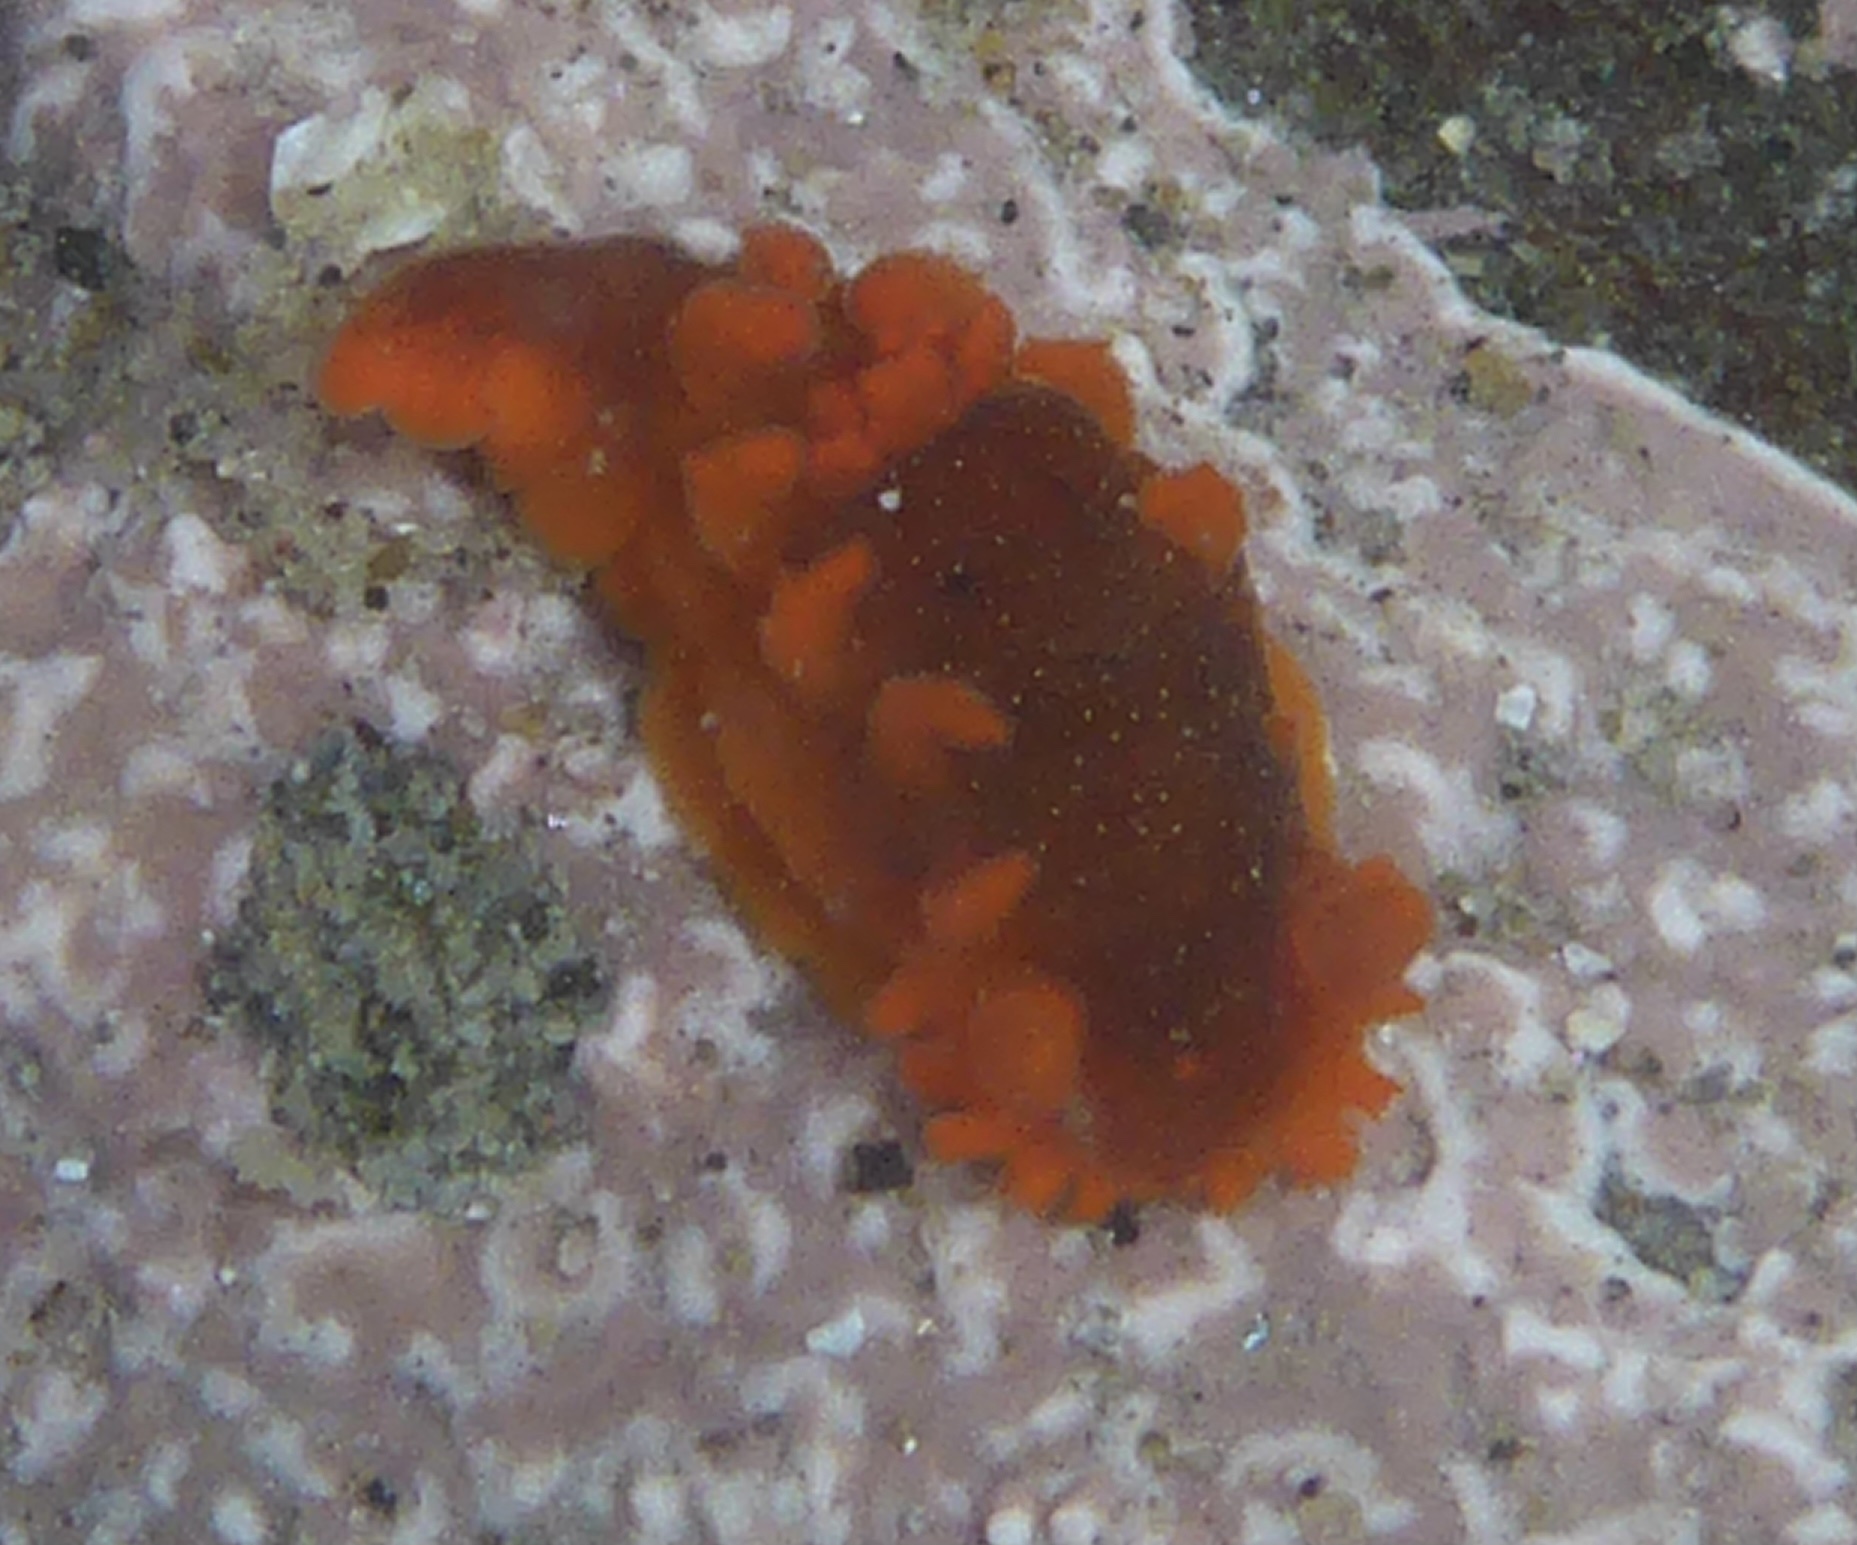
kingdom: Animalia
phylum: Mollusca
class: Gastropoda
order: Nudibranchia
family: Polyceridae
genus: Triopha
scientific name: Triopha maculata
